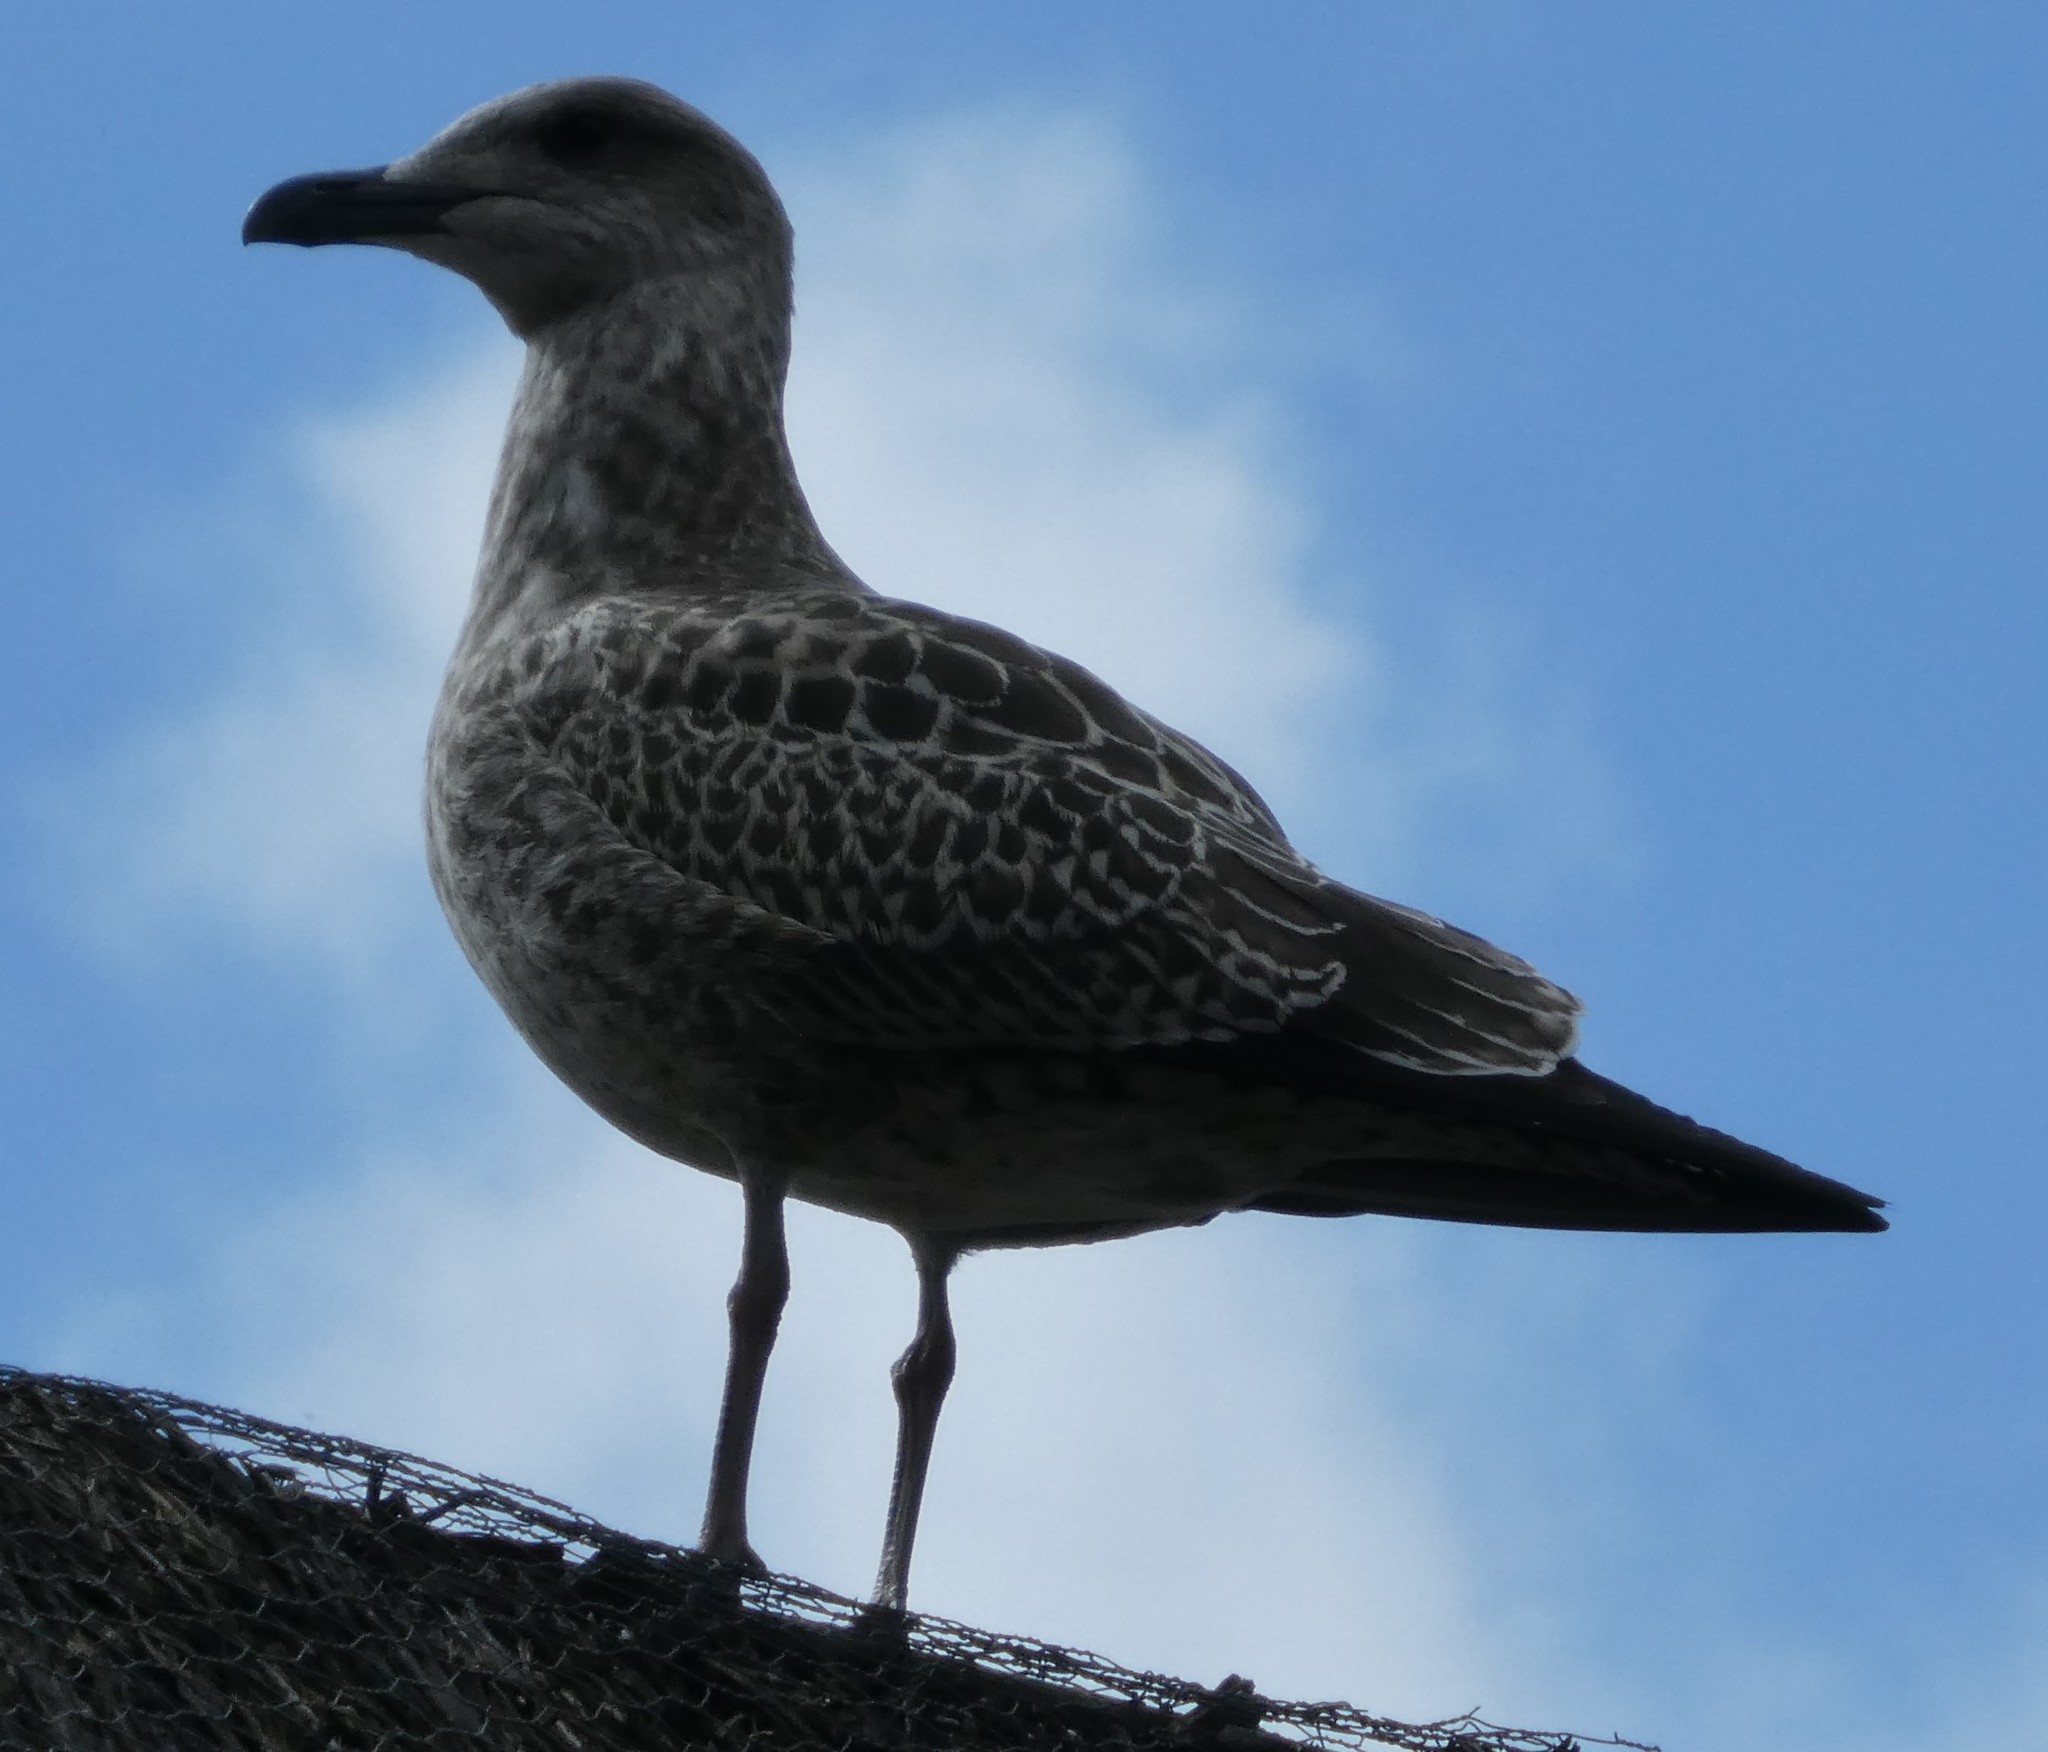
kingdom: Animalia
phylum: Chordata
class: Aves
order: Charadriiformes
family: Laridae
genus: Larus
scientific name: Larus argentatus
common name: Herring gull
